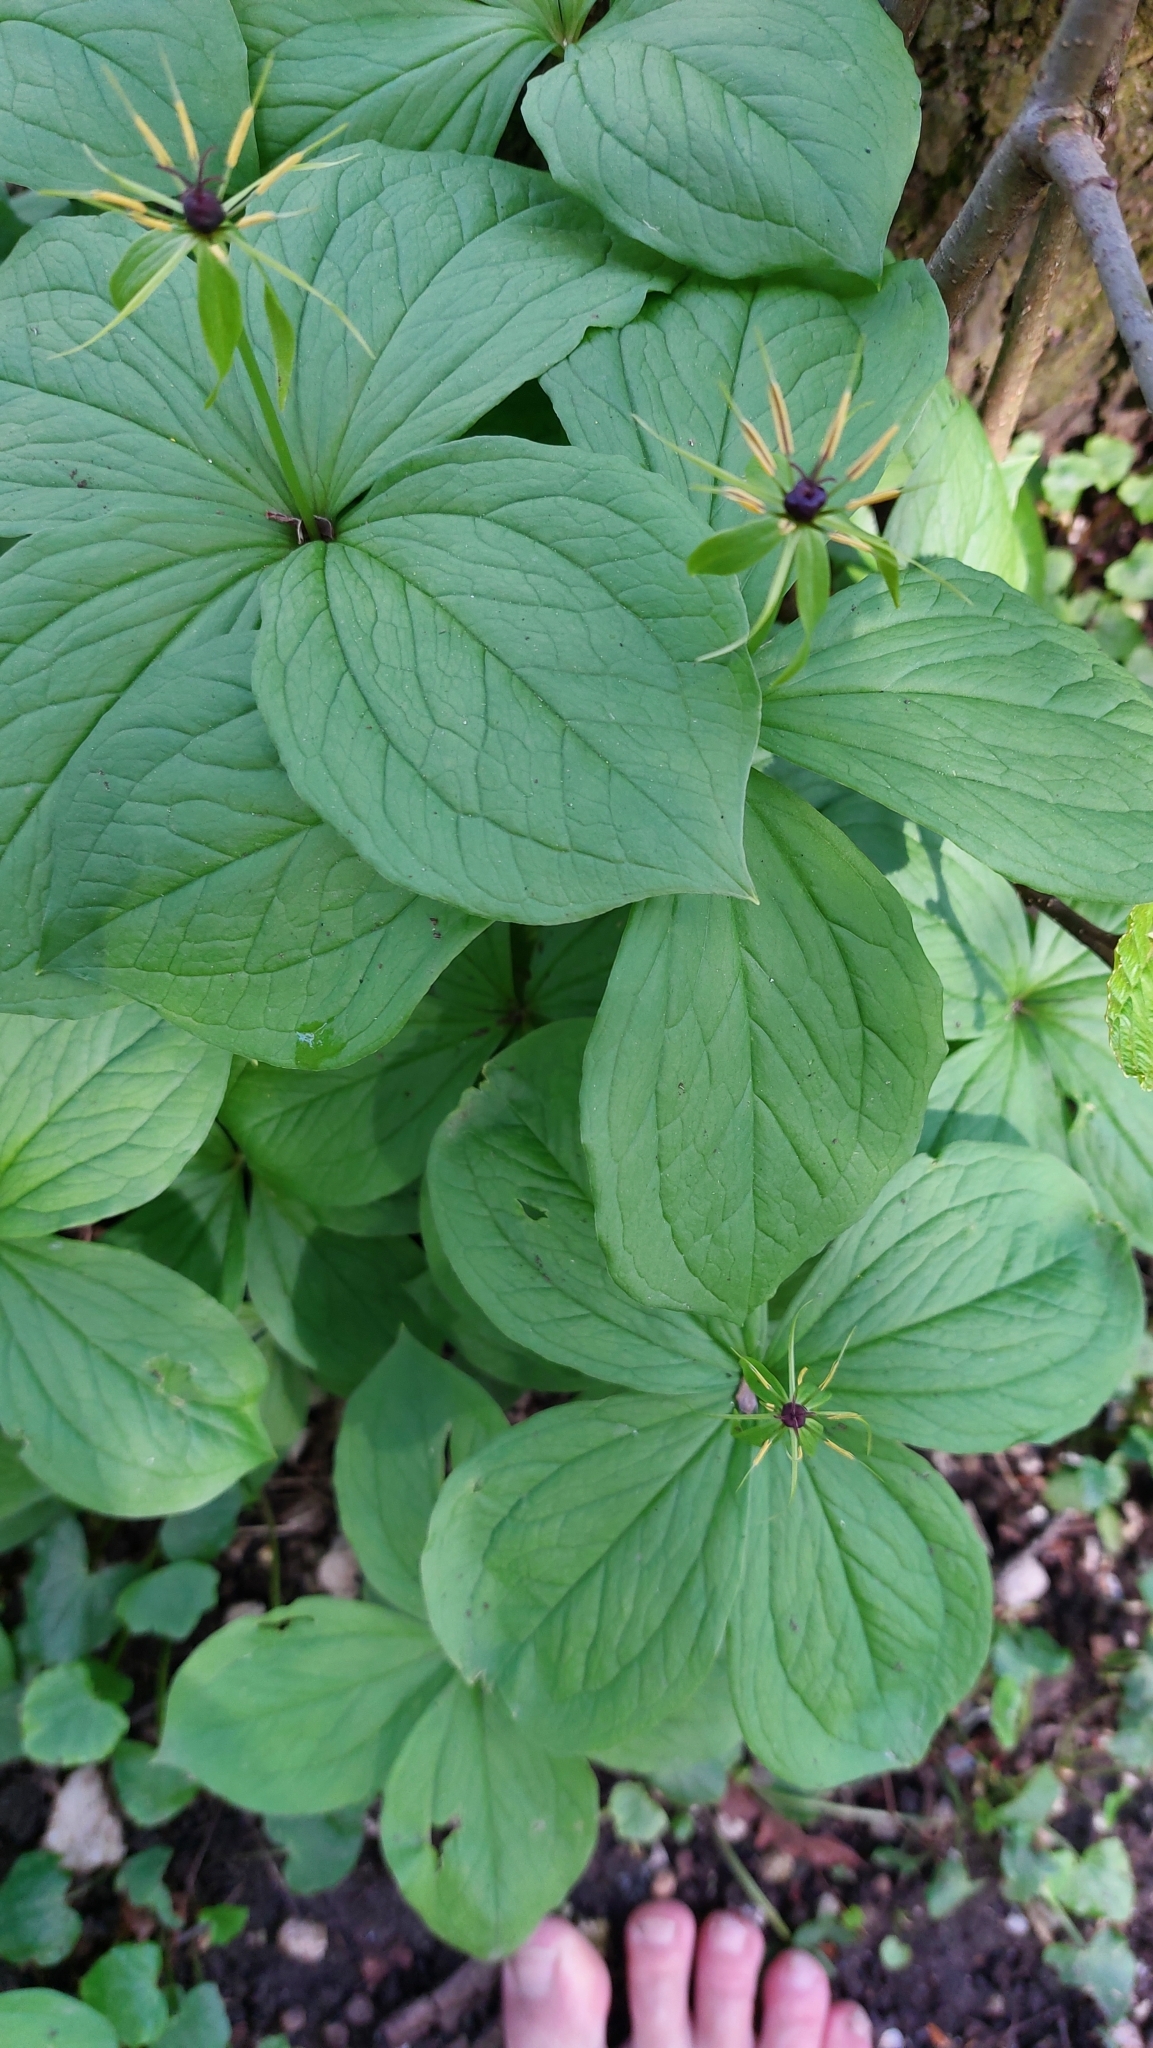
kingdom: Plantae
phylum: Tracheophyta
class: Liliopsida
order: Liliales
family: Melanthiaceae
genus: Paris
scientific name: Paris quadrifolia
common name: Herb-paris
